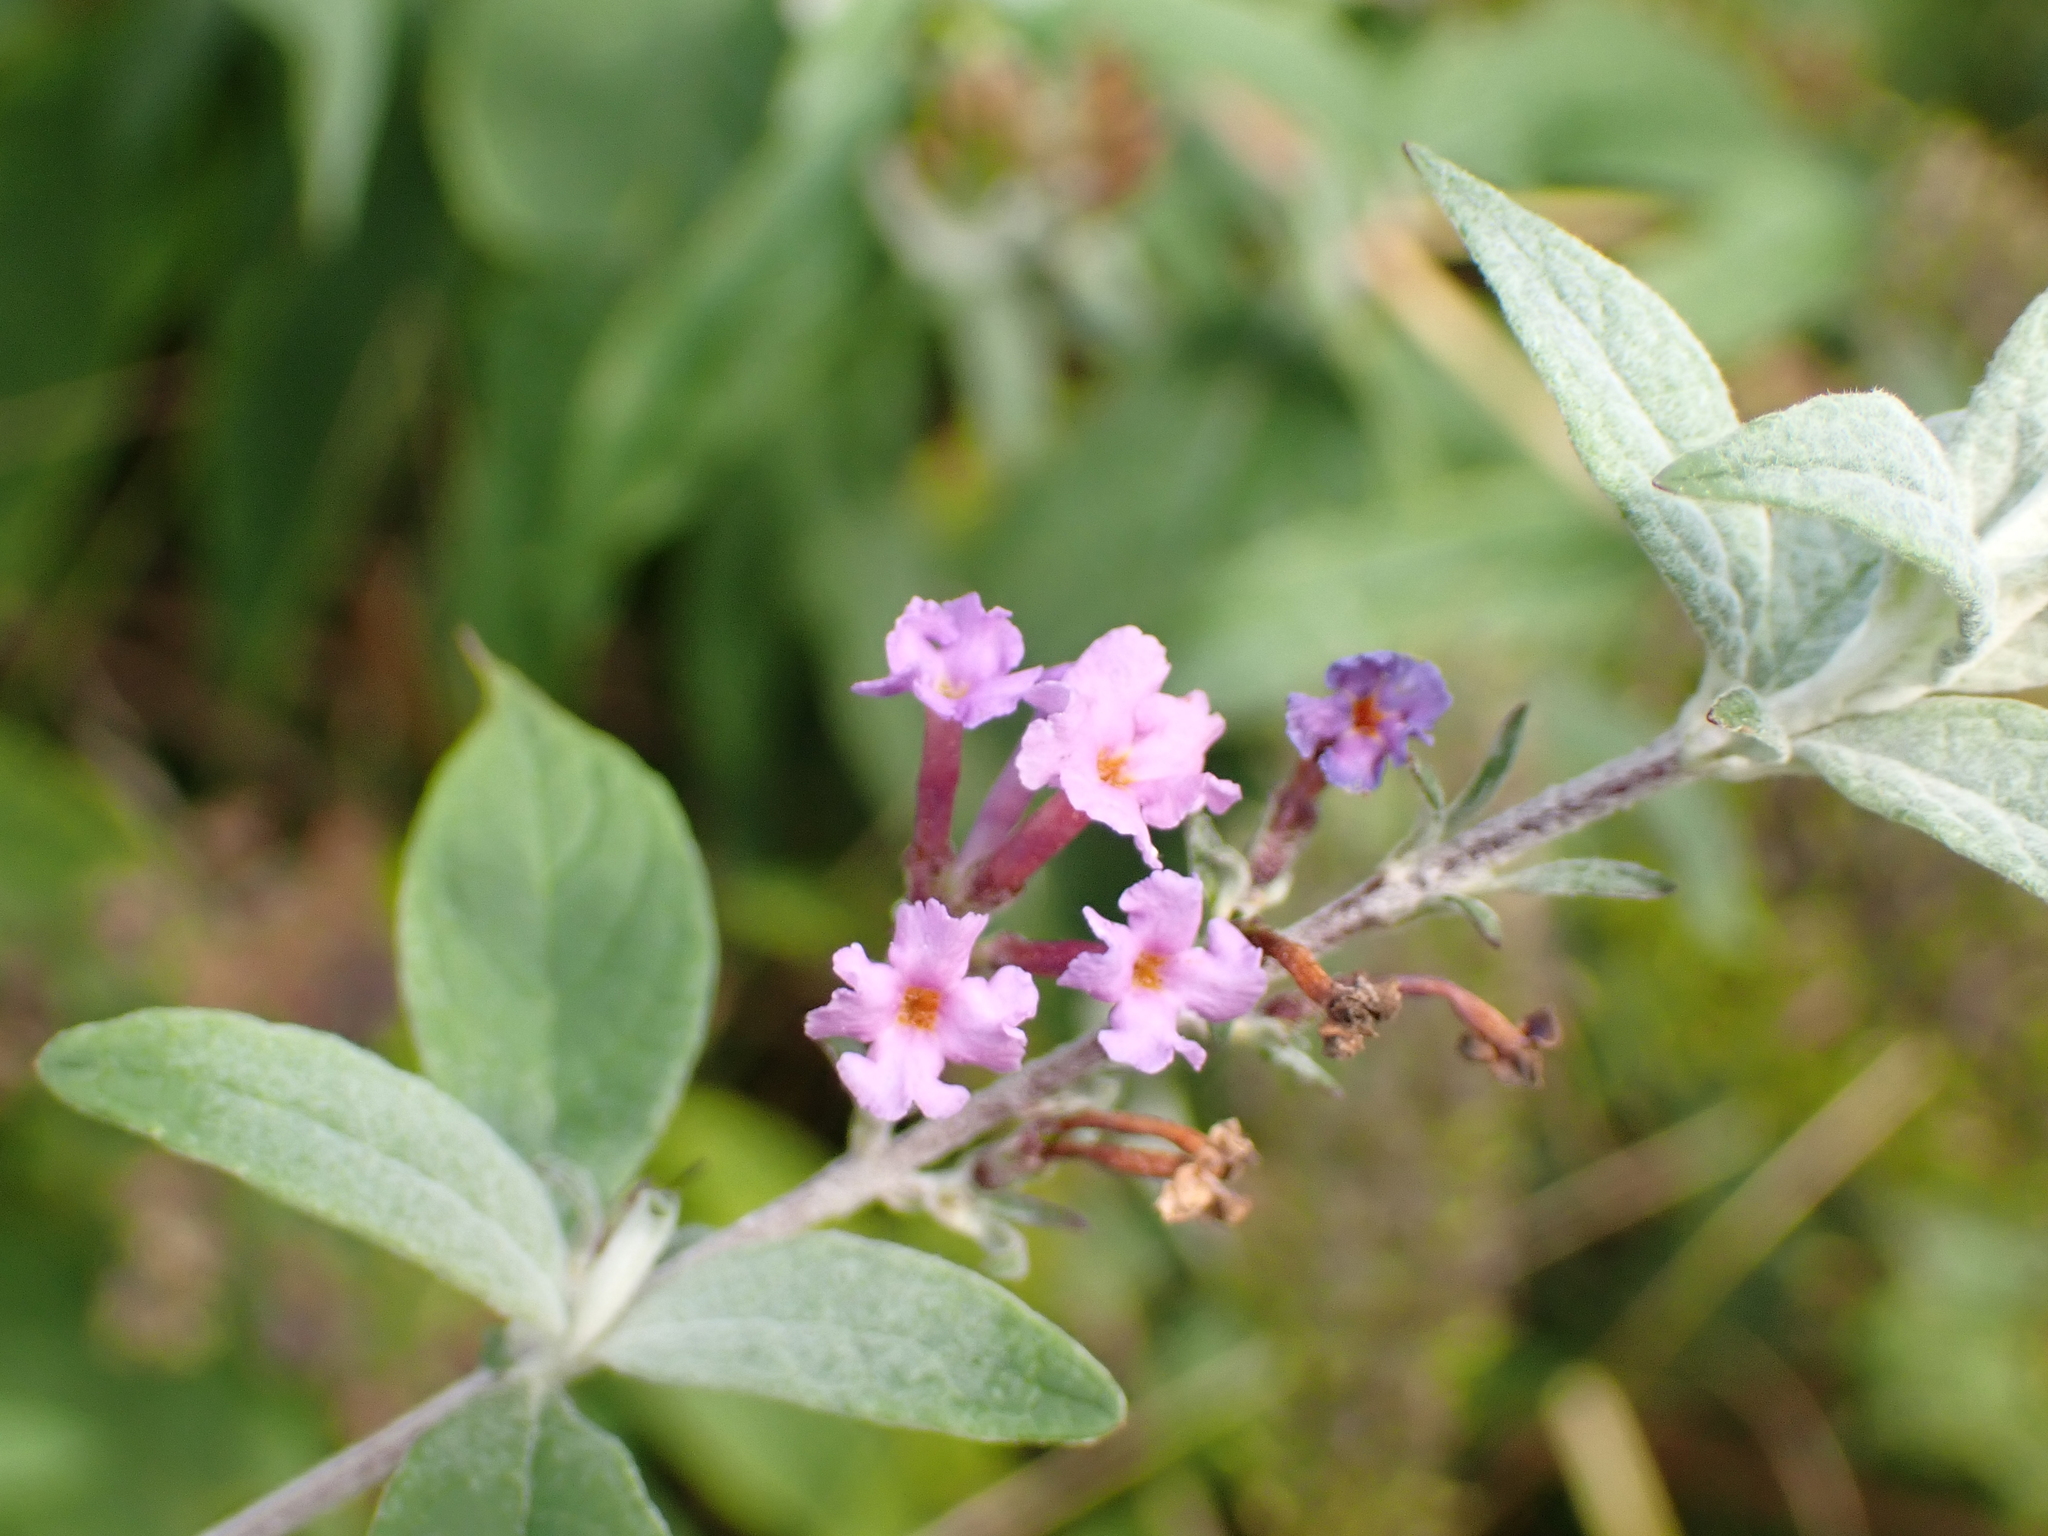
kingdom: Plantae
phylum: Tracheophyta
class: Magnoliopsida
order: Lamiales
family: Scrophulariaceae
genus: Buddleja
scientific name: Buddleja davidii
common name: Butterfly-bush
